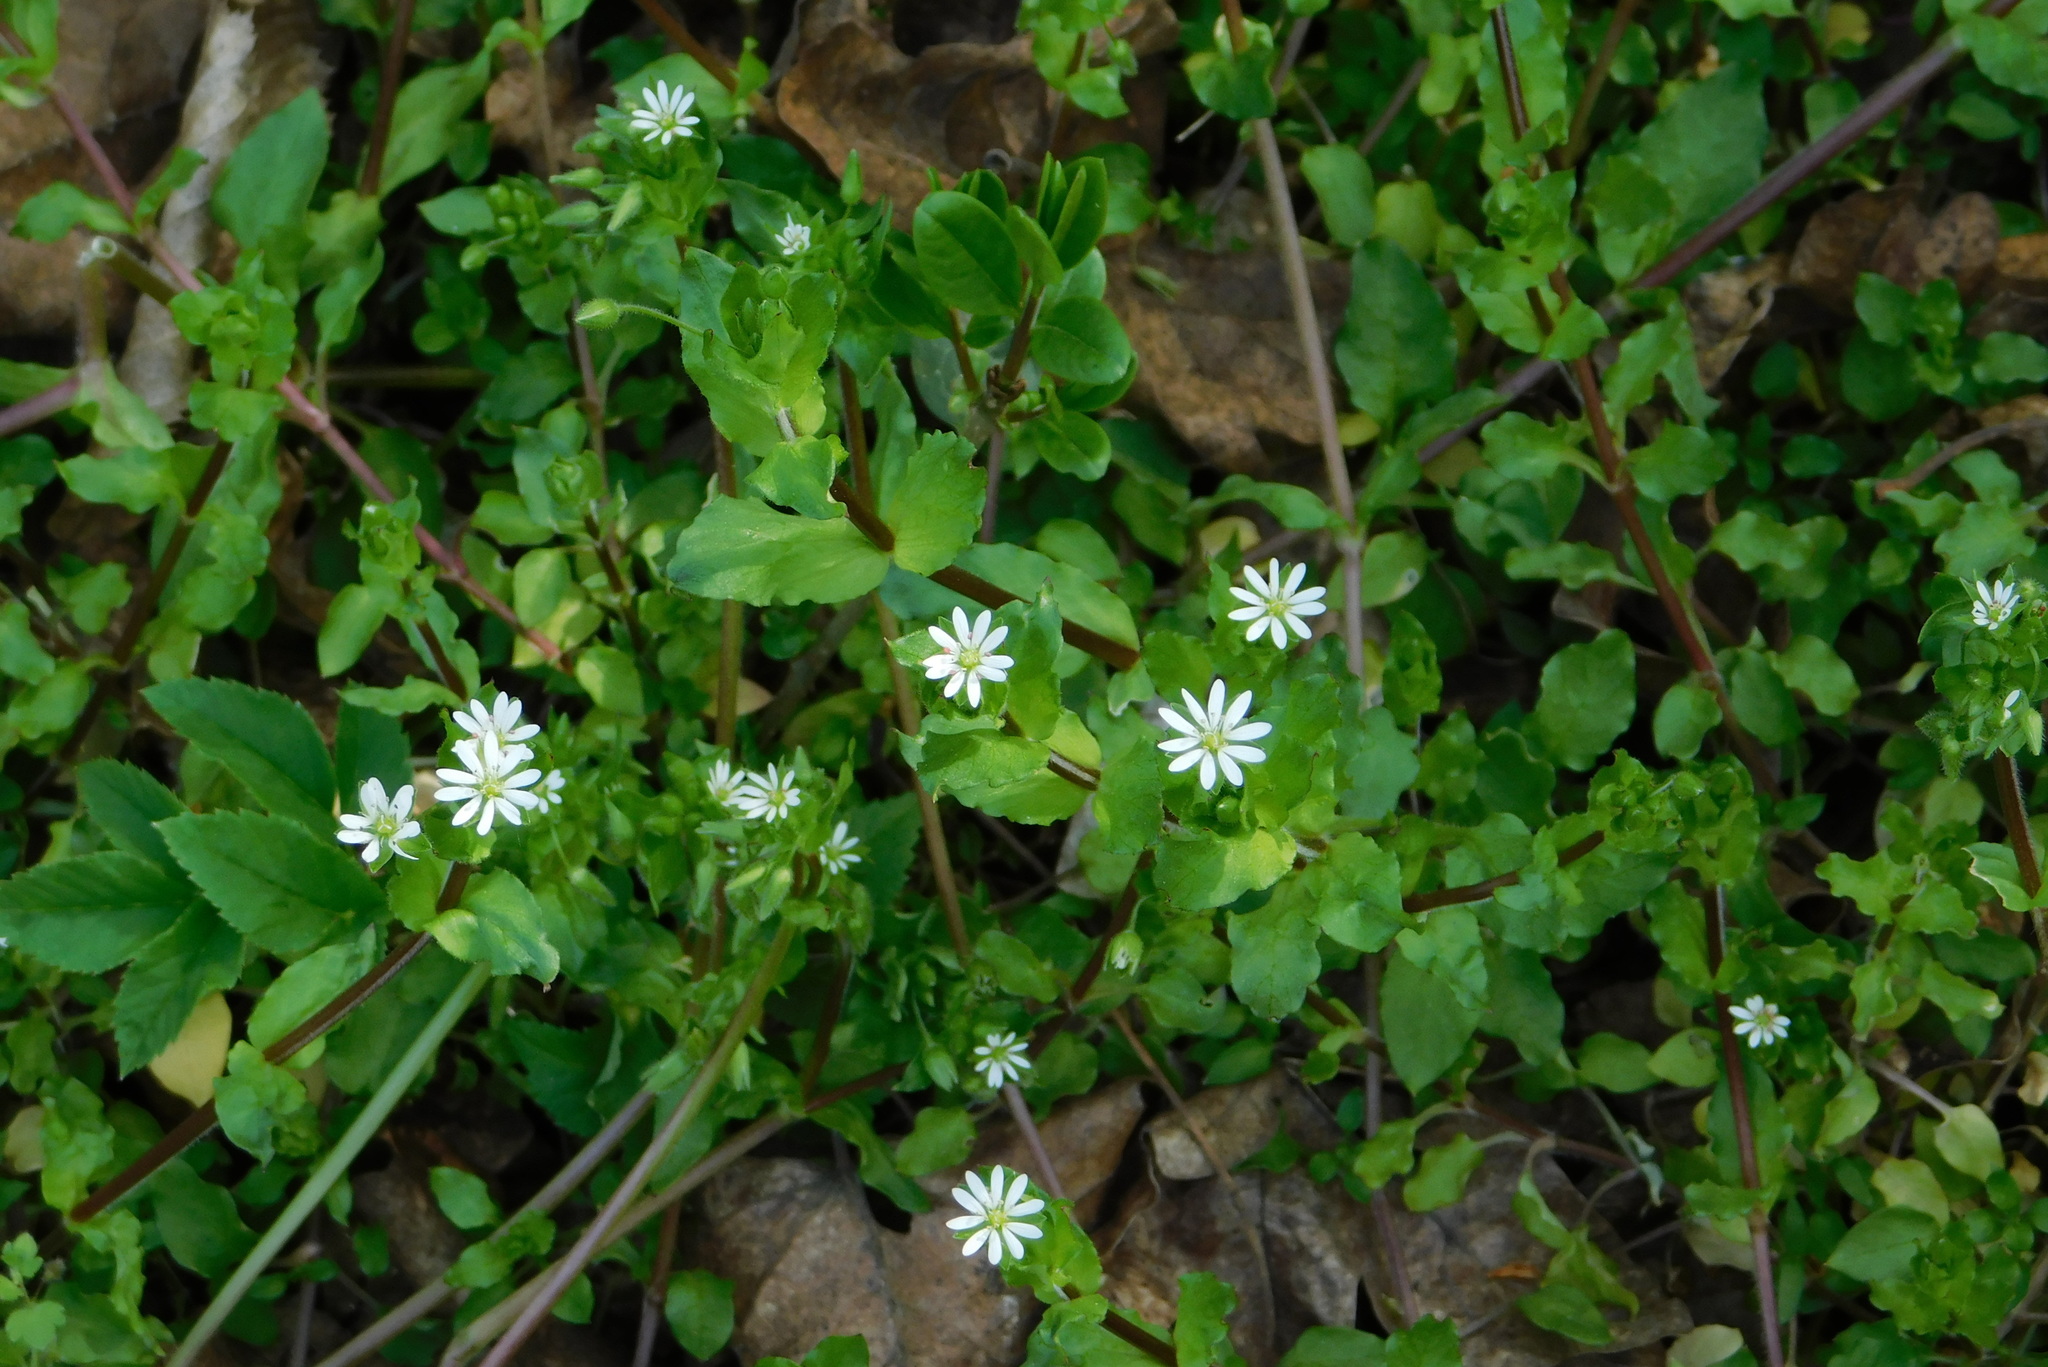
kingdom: Plantae
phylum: Tracheophyta
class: Magnoliopsida
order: Caryophyllales
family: Caryophyllaceae
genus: Stellaria
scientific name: Stellaria media
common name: Common chickweed
